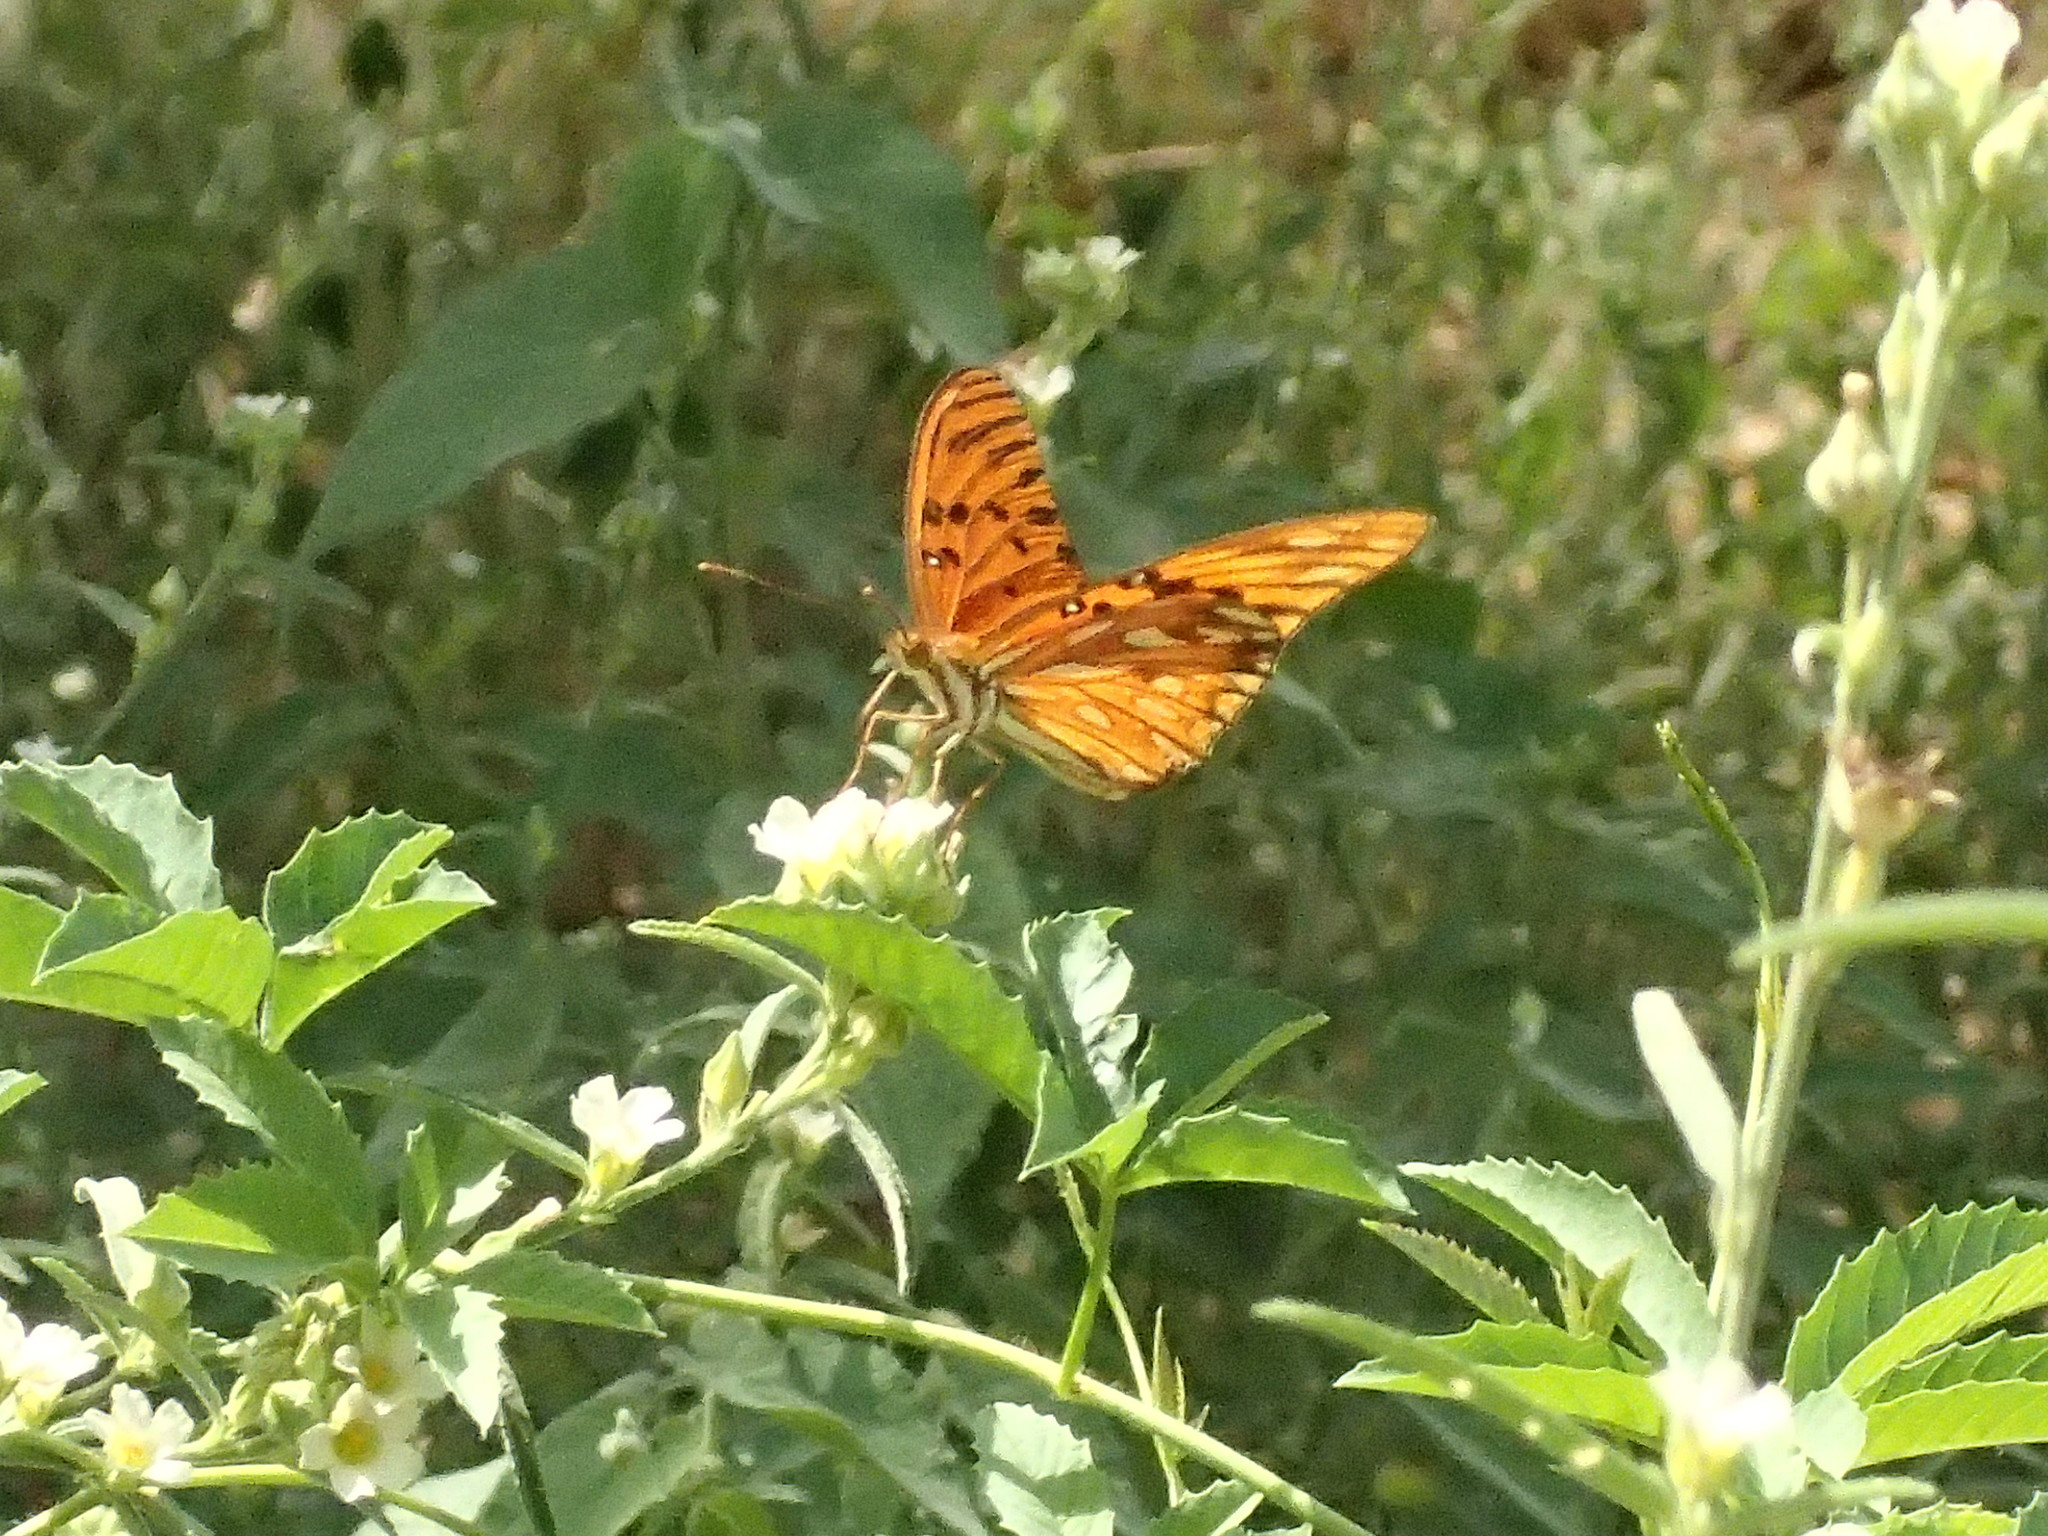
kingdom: Animalia
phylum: Arthropoda
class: Insecta
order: Lepidoptera
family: Nymphalidae
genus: Dione
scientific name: Dione vanillae
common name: Gulf fritillary
